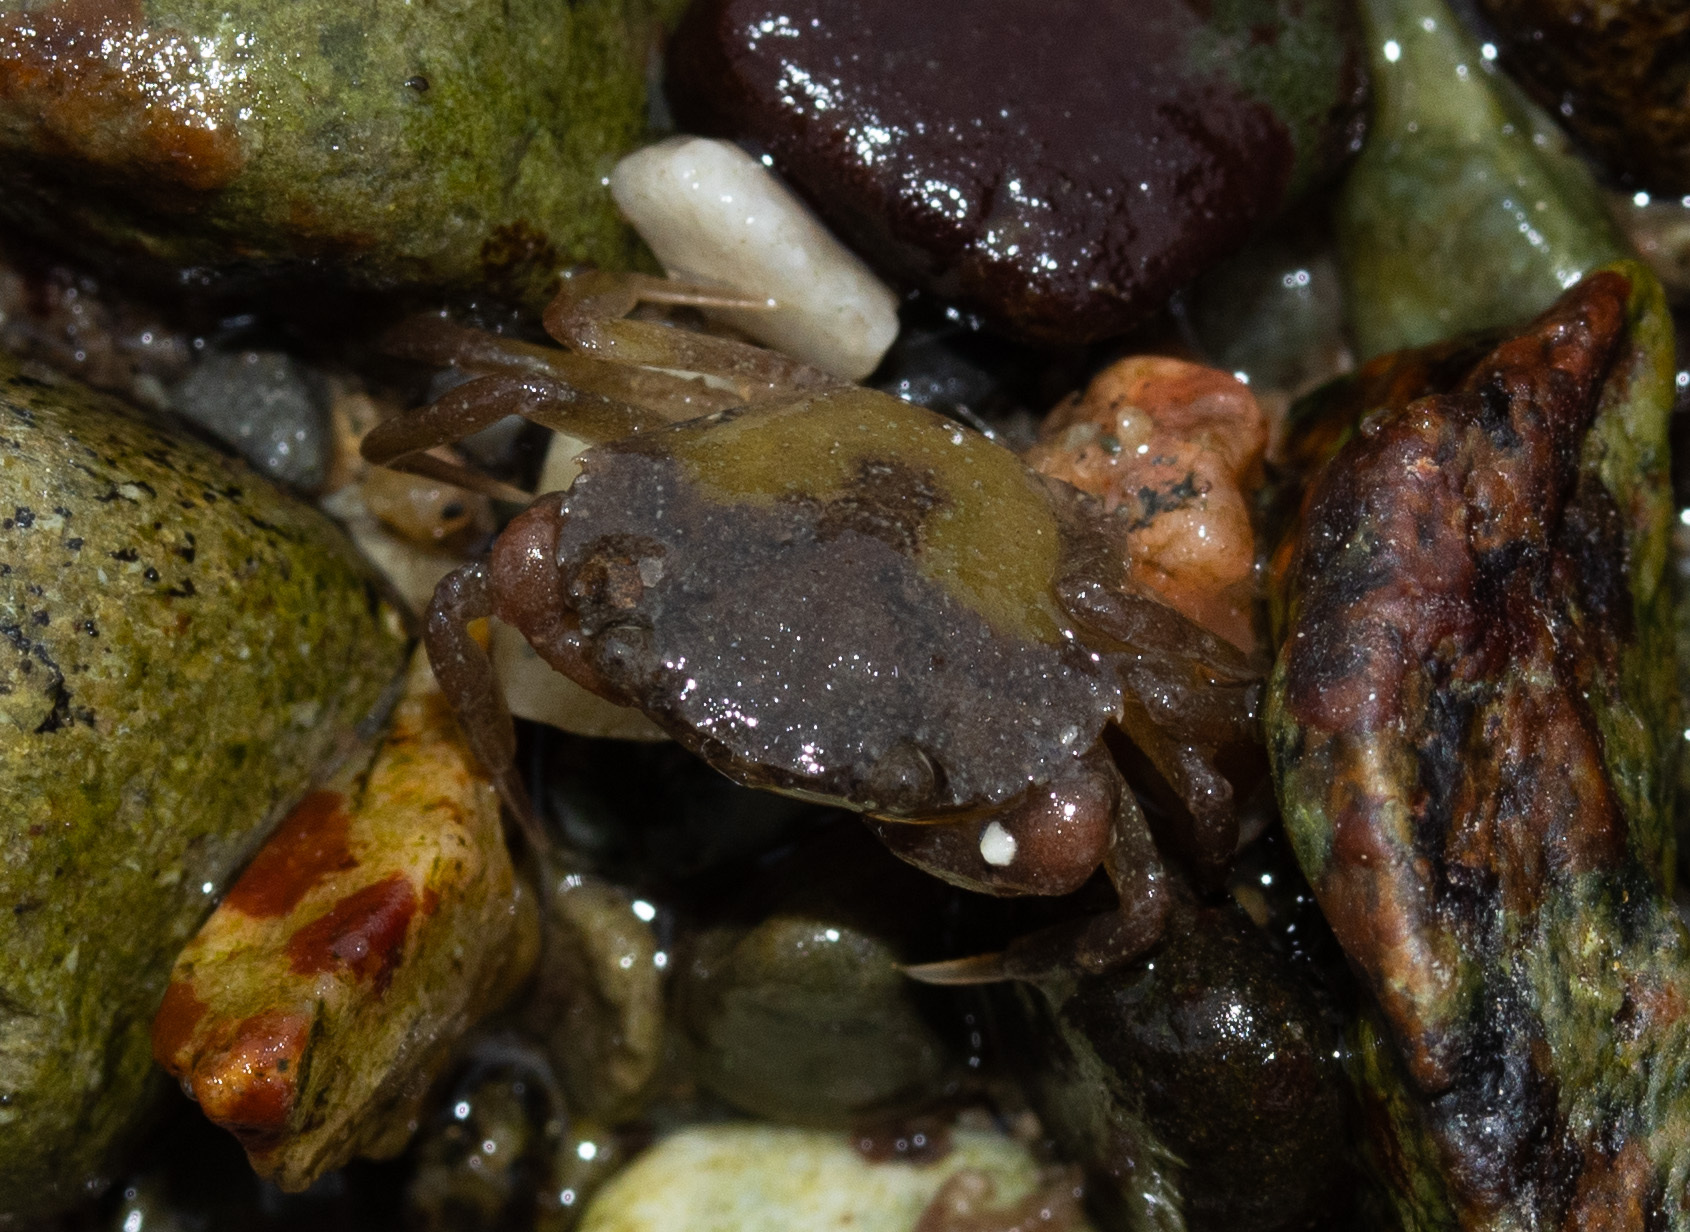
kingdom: Animalia
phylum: Arthropoda
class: Malacostraca
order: Decapoda
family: Carcinidae
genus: Carcinus
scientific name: Carcinus maenas
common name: European green crab
